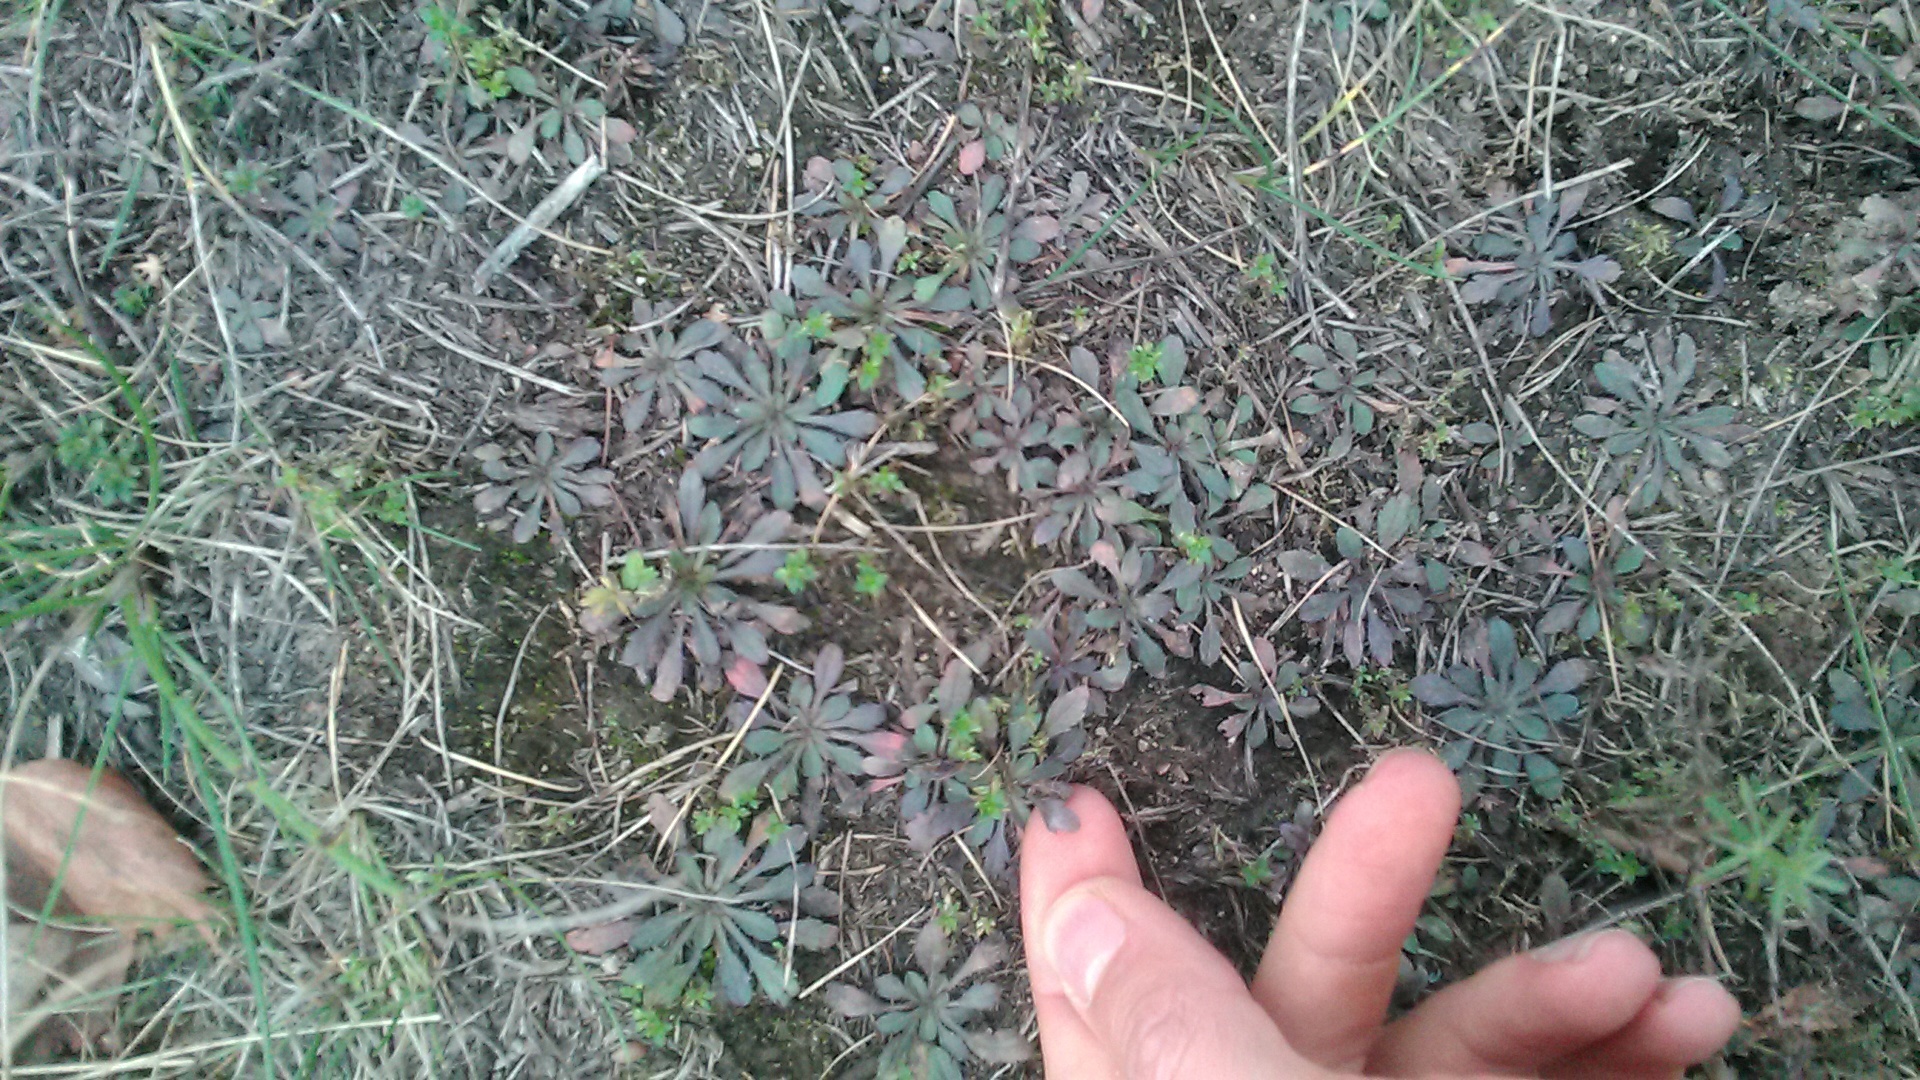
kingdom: Plantae
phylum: Tracheophyta
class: Magnoliopsida
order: Asterales
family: Asteraceae
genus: Erigeron
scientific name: Erigeron canadensis
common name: Canadian fleabane
